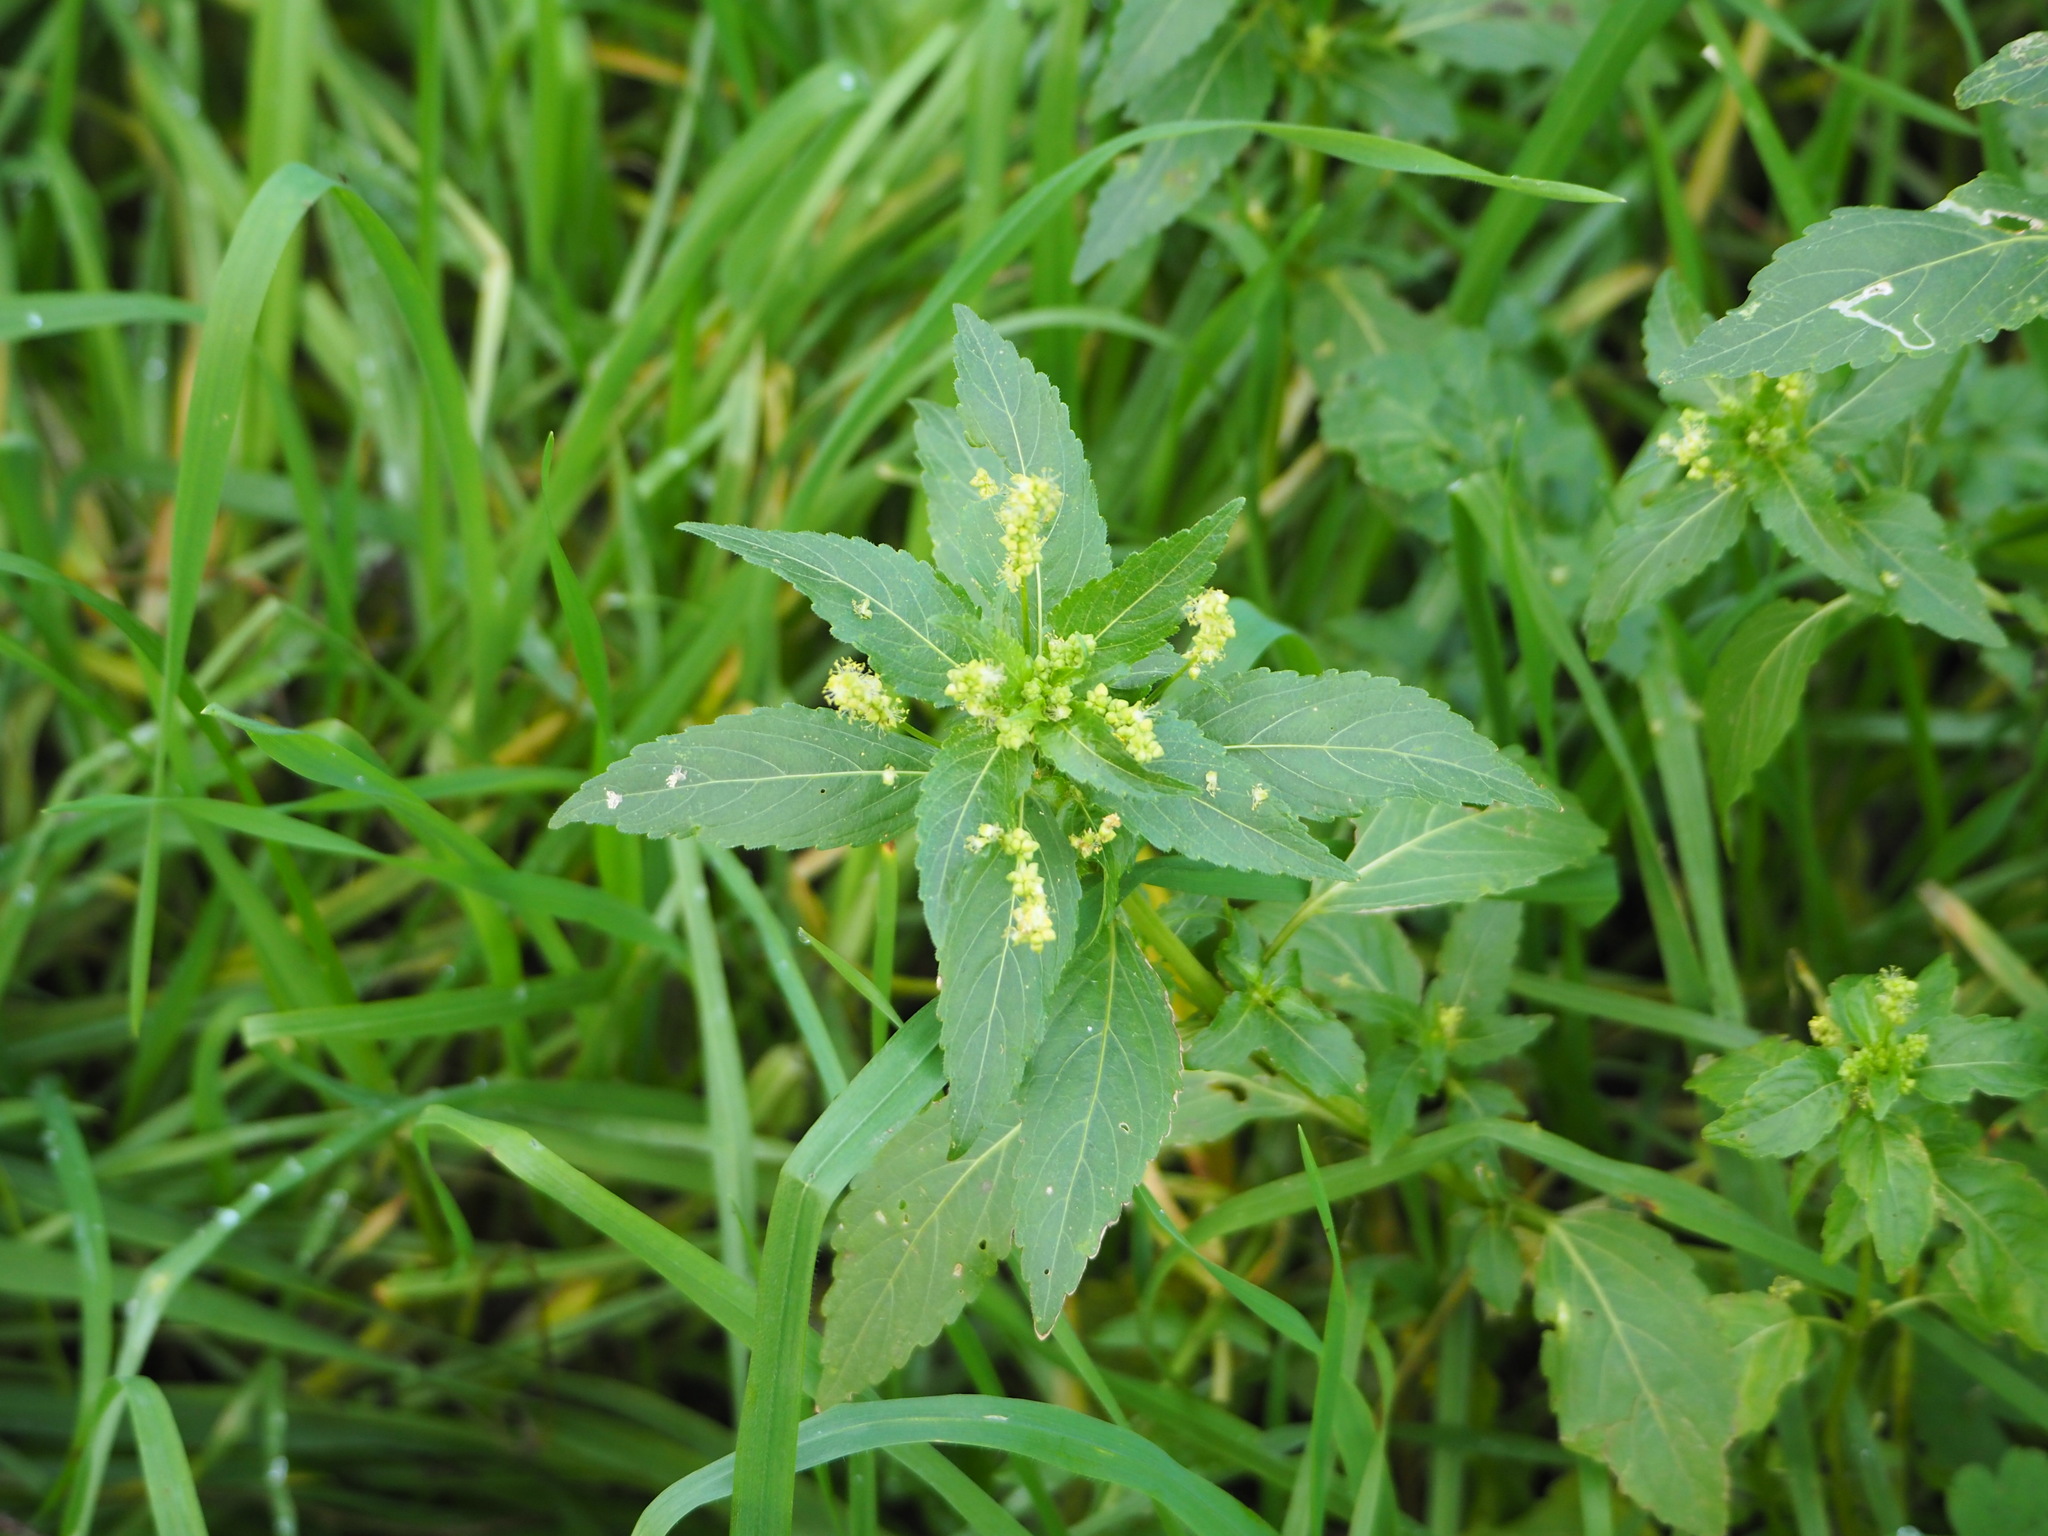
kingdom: Plantae
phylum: Tracheophyta
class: Magnoliopsida
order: Malpighiales
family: Euphorbiaceae
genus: Mercurialis
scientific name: Mercurialis annua
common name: Annual mercury
